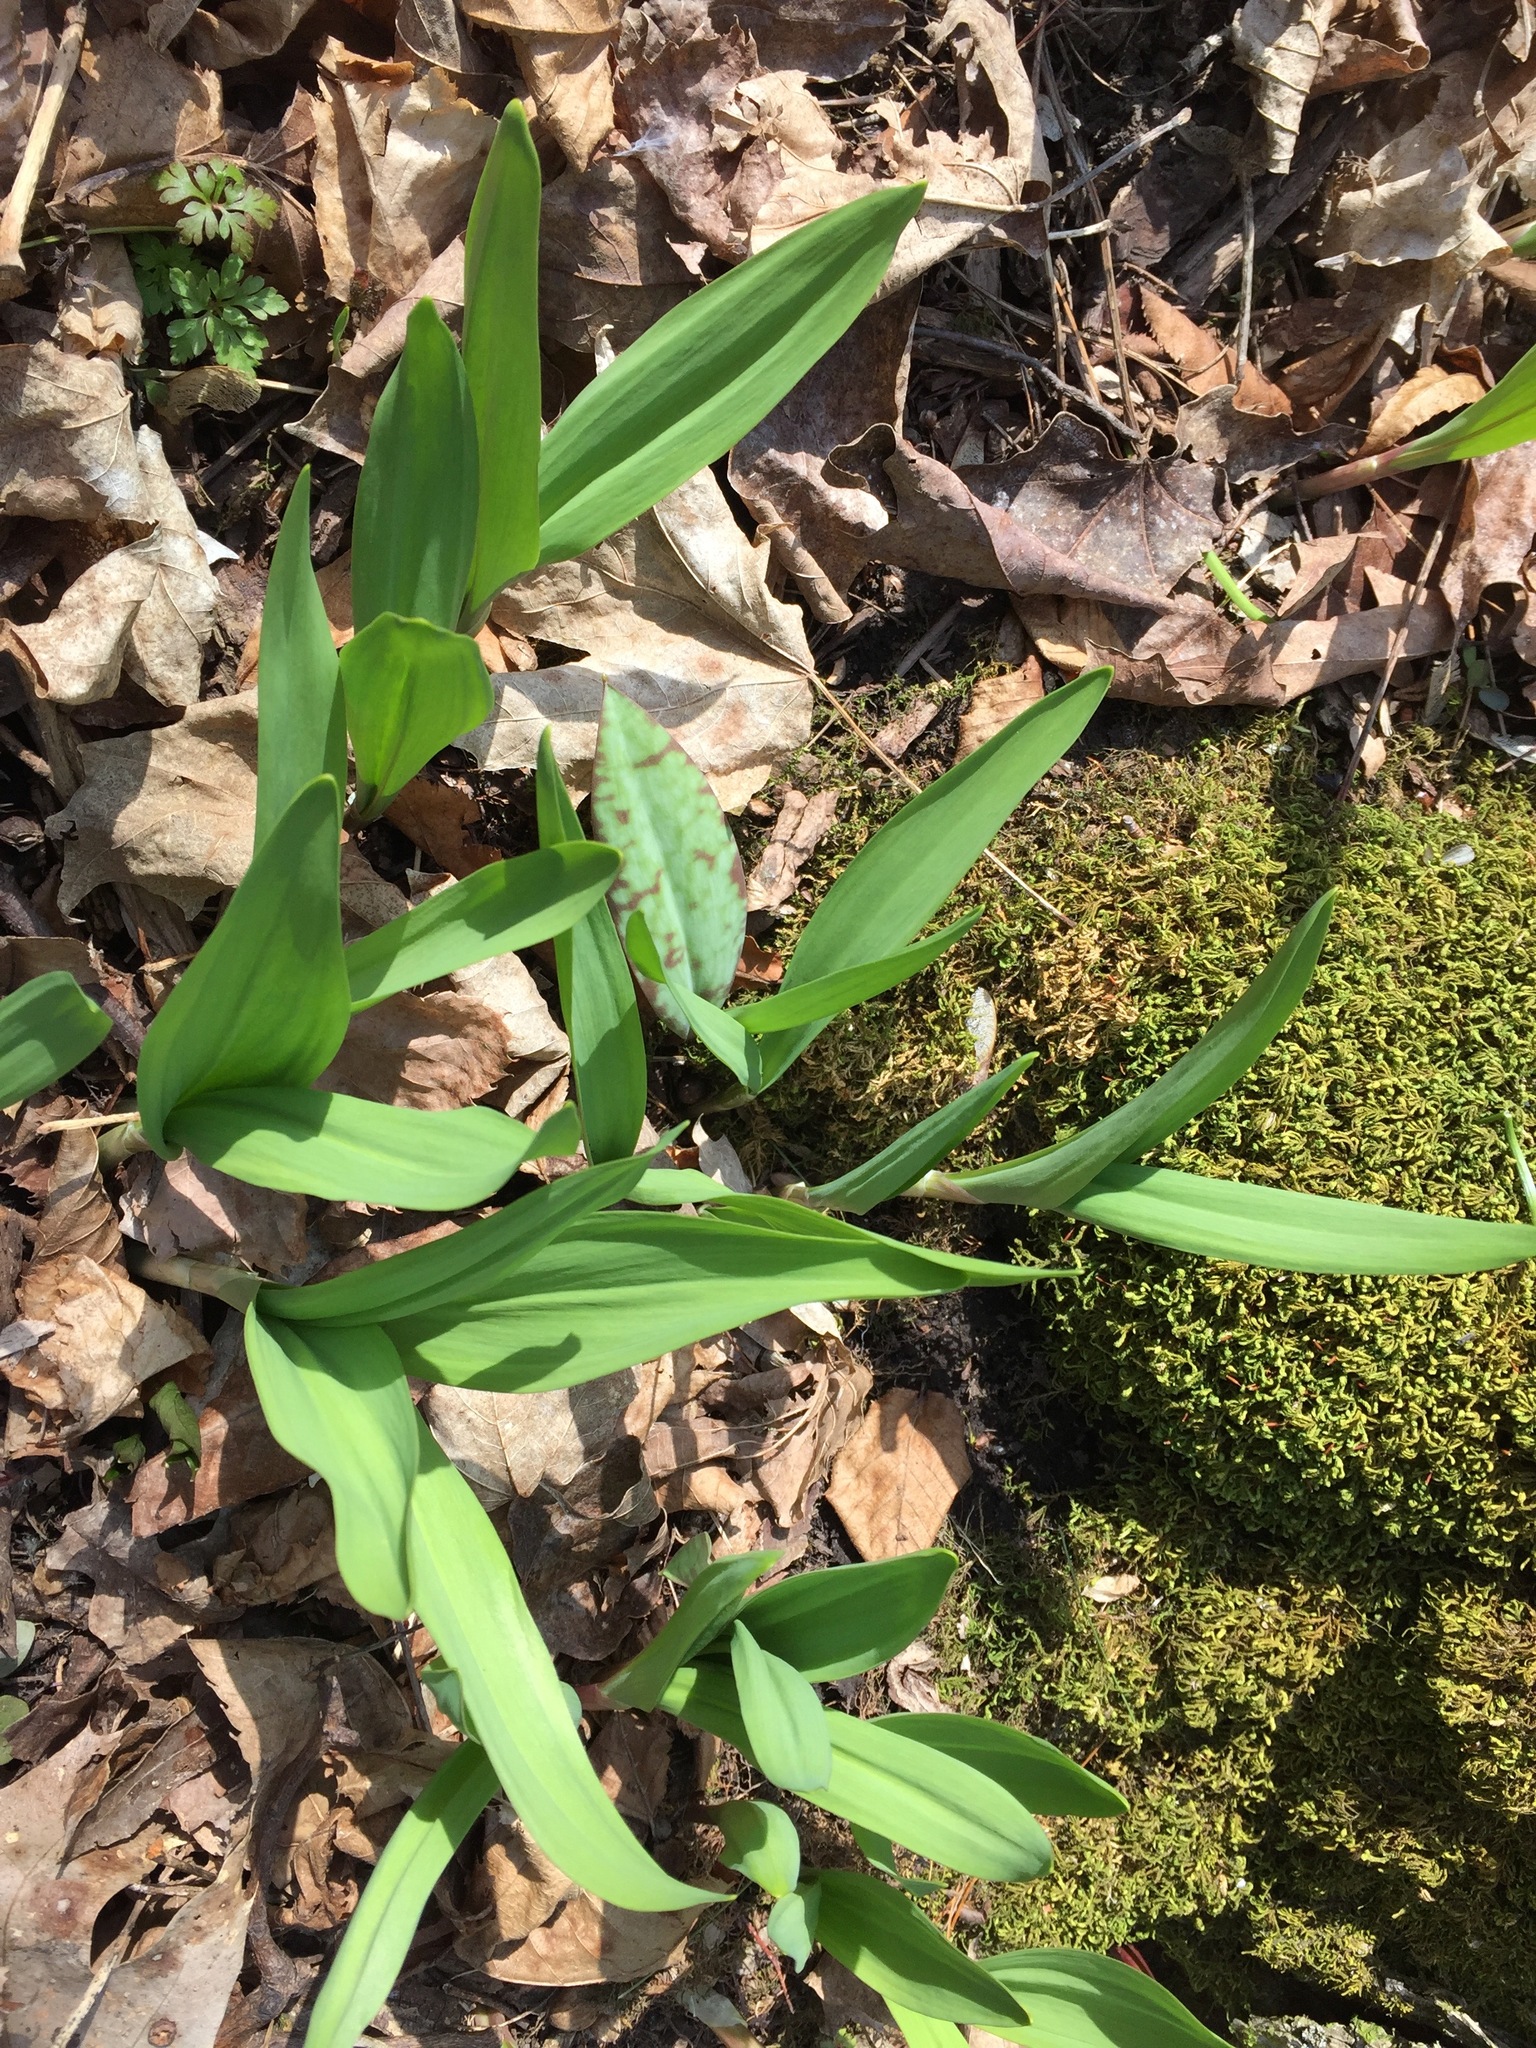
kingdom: Plantae
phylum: Tracheophyta
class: Liliopsida
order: Asparagales
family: Amaryllidaceae
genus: Allium
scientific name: Allium tricoccum
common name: Ramp
